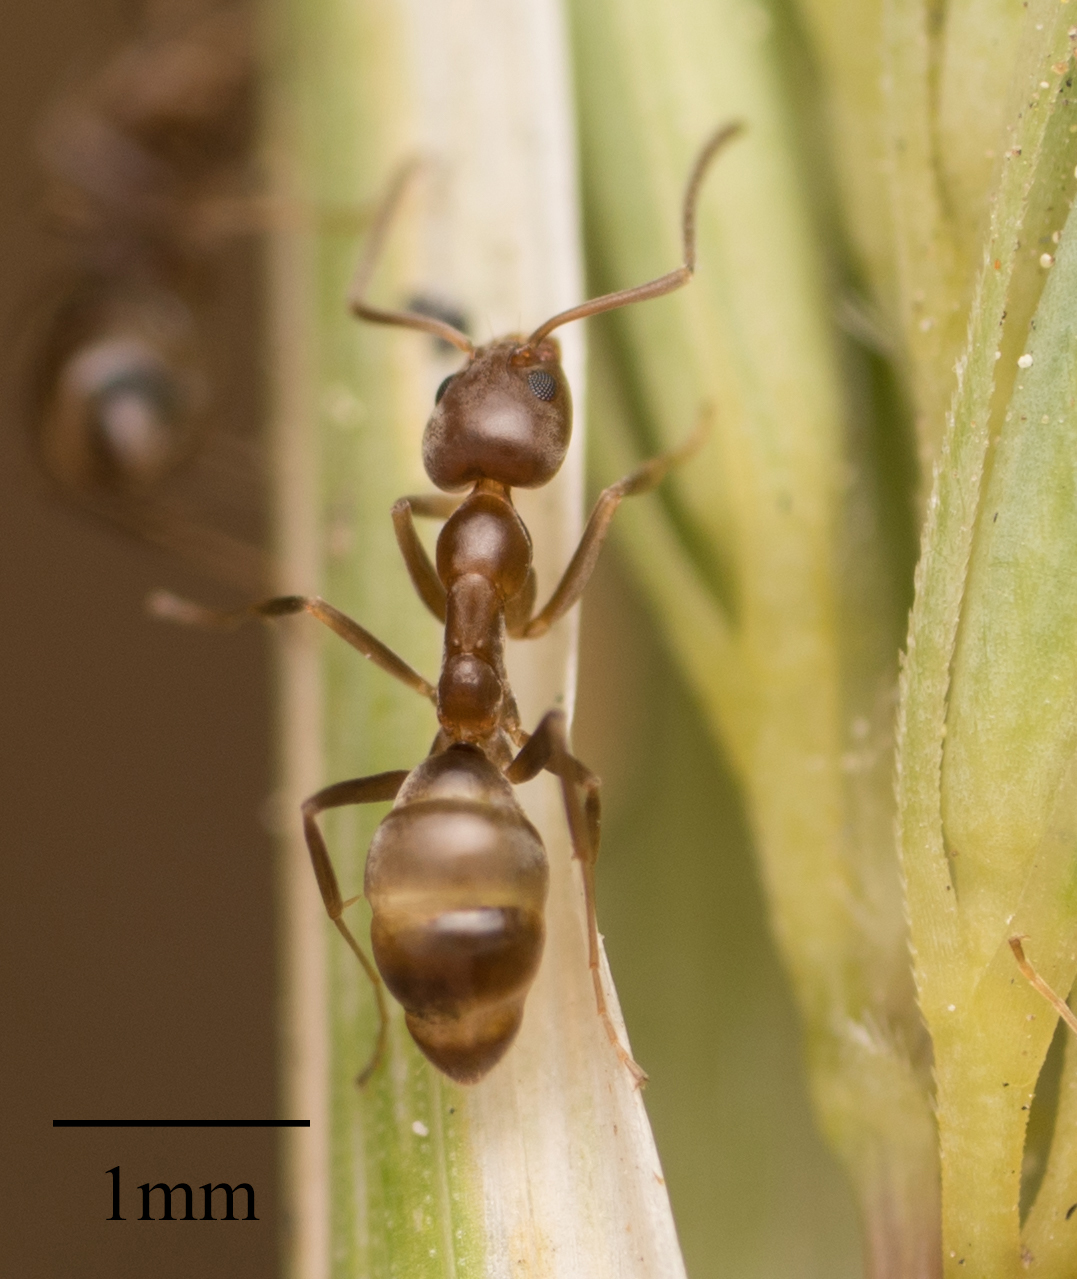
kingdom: Animalia
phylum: Arthropoda
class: Insecta
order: Hymenoptera
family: Formicidae
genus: Linepithema
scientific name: Linepithema humile
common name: Argentine ant
